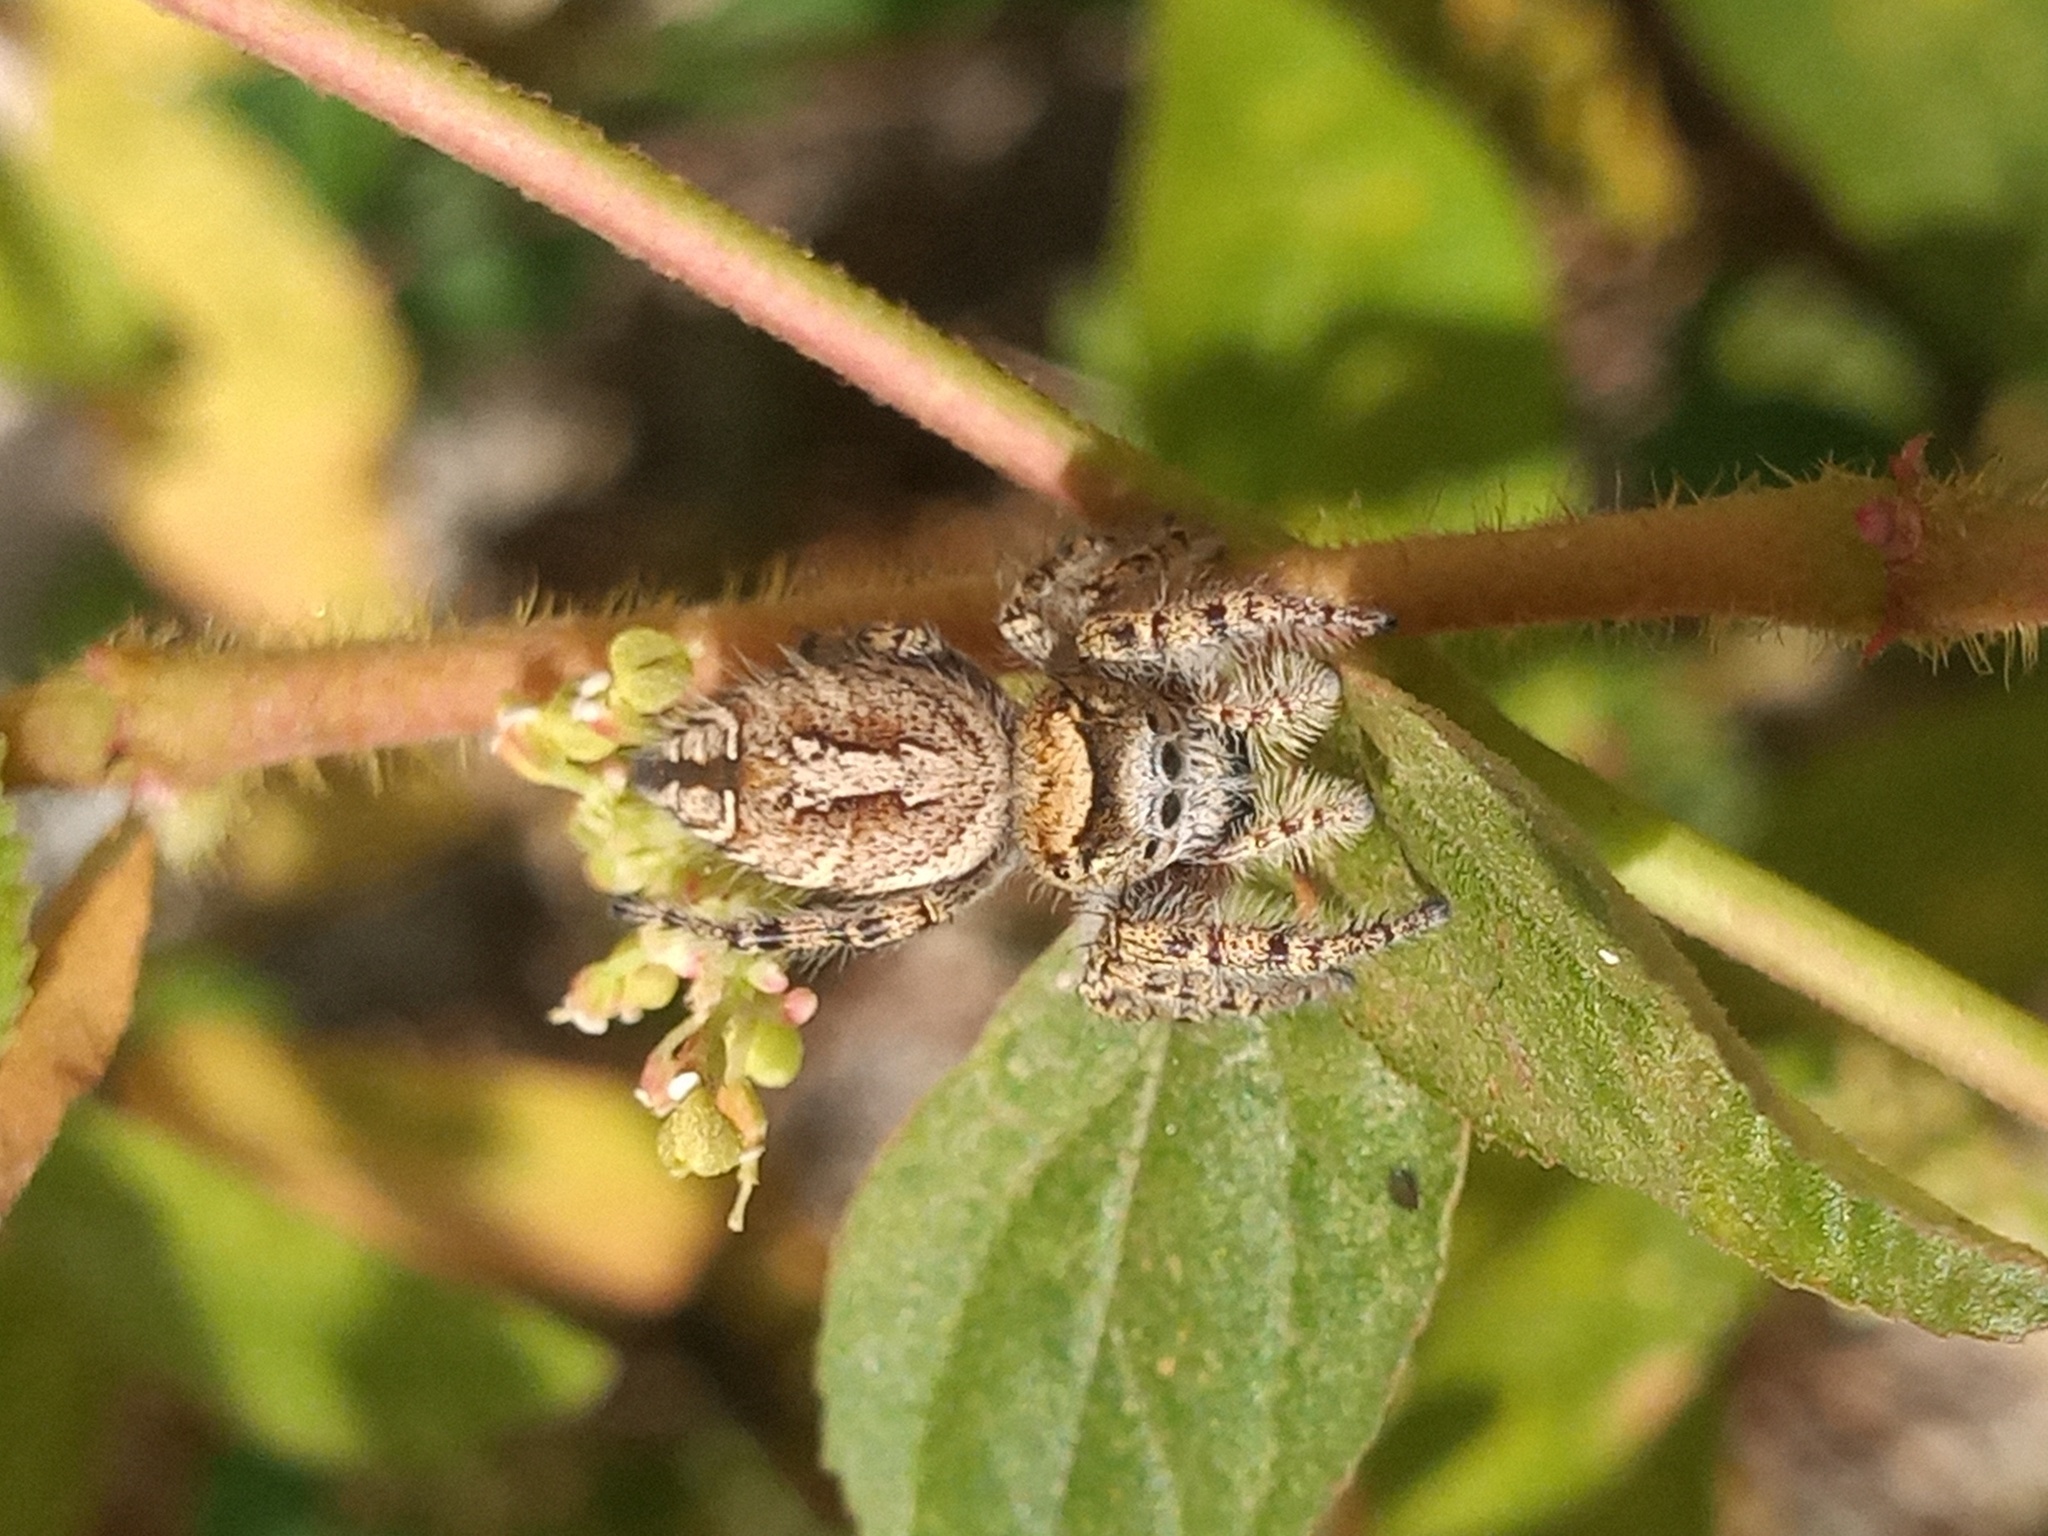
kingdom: Animalia
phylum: Arthropoda
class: Arachnida
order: Araneae
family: Salticidae
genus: Phidippus
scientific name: Phidippus arizonensis
